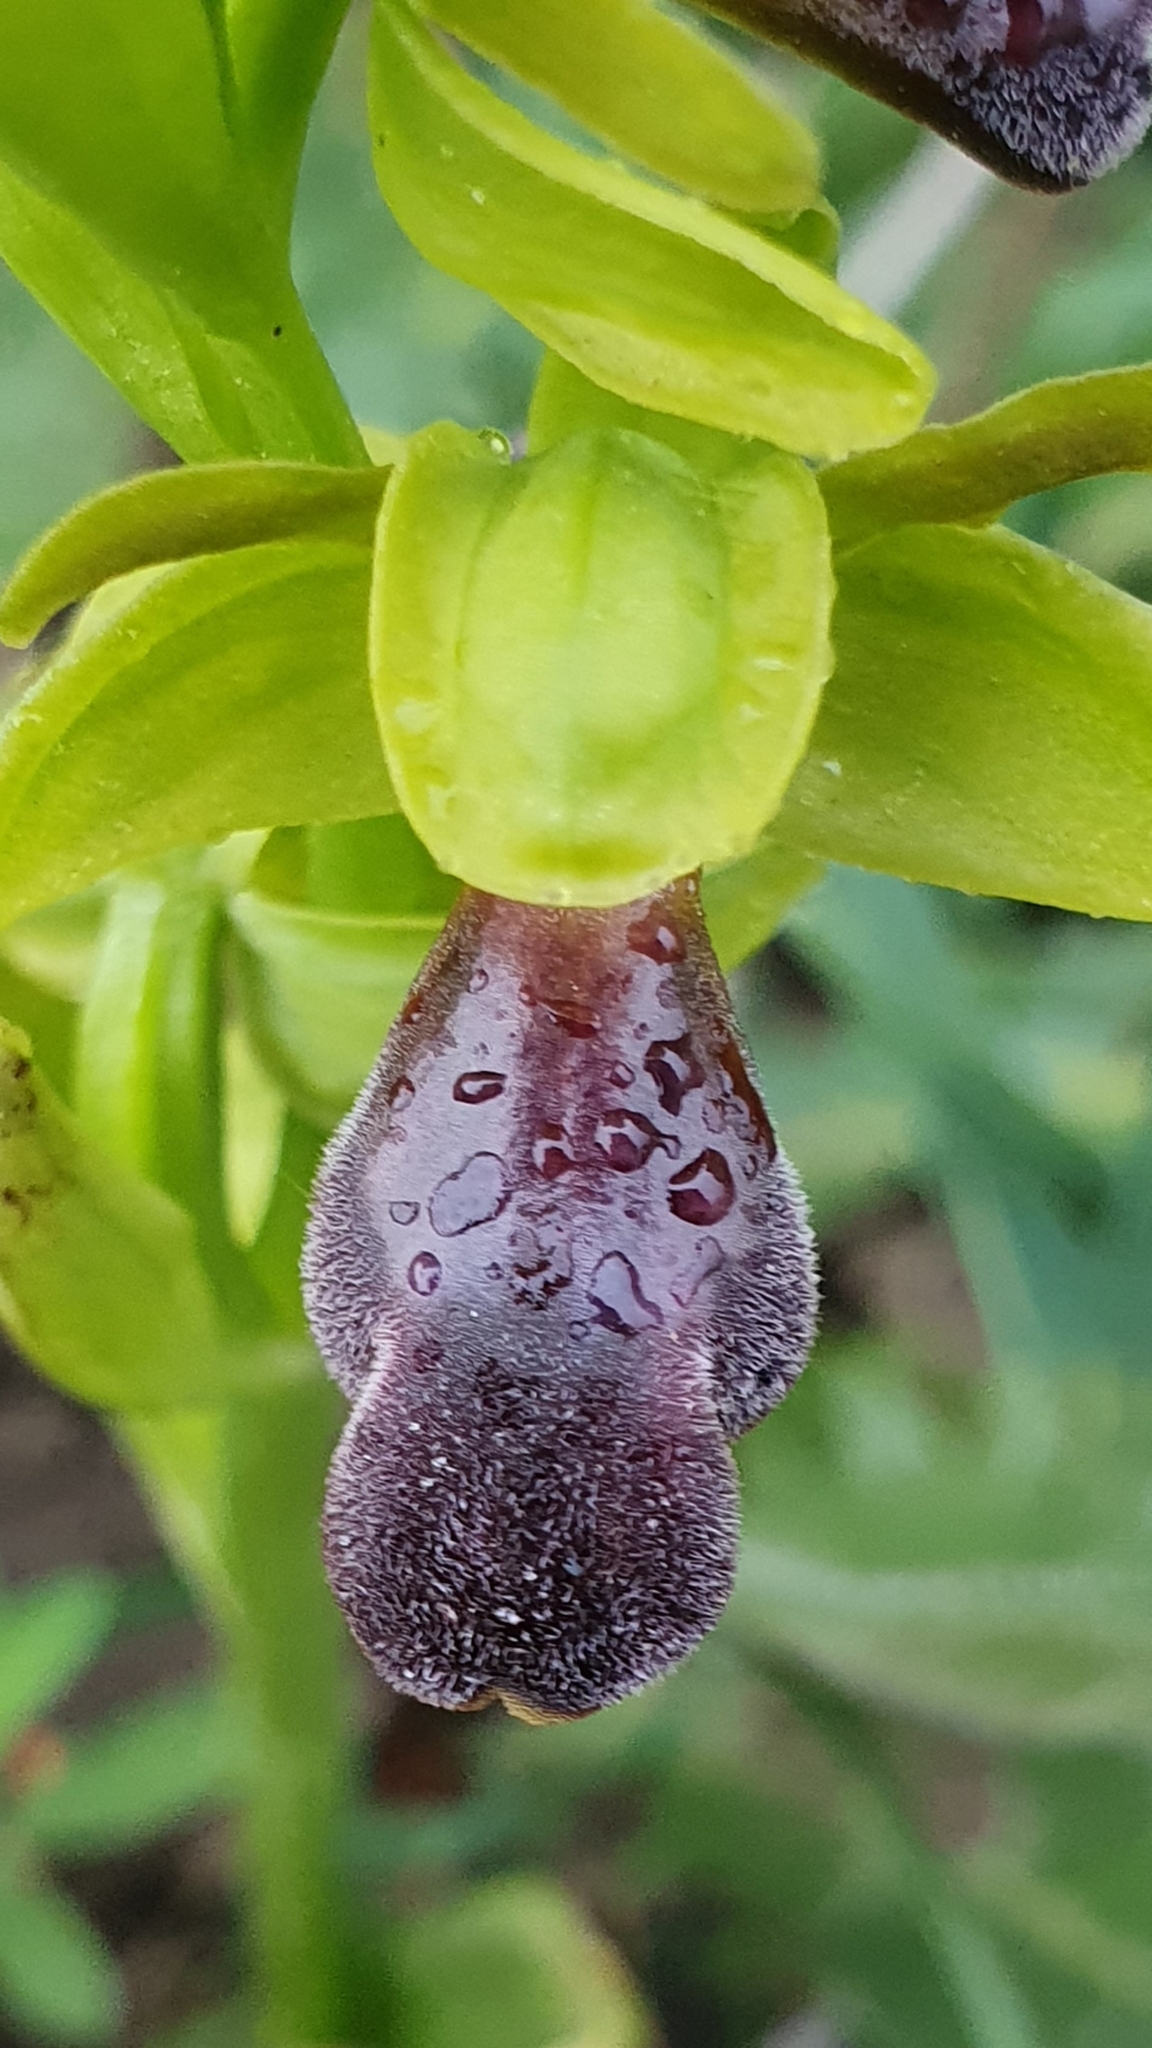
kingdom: Plantae
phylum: Tracheophyta
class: Liliopsida
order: Asparagales
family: Orchidaceae
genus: Ophrys
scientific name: Ophrys omegaifera
